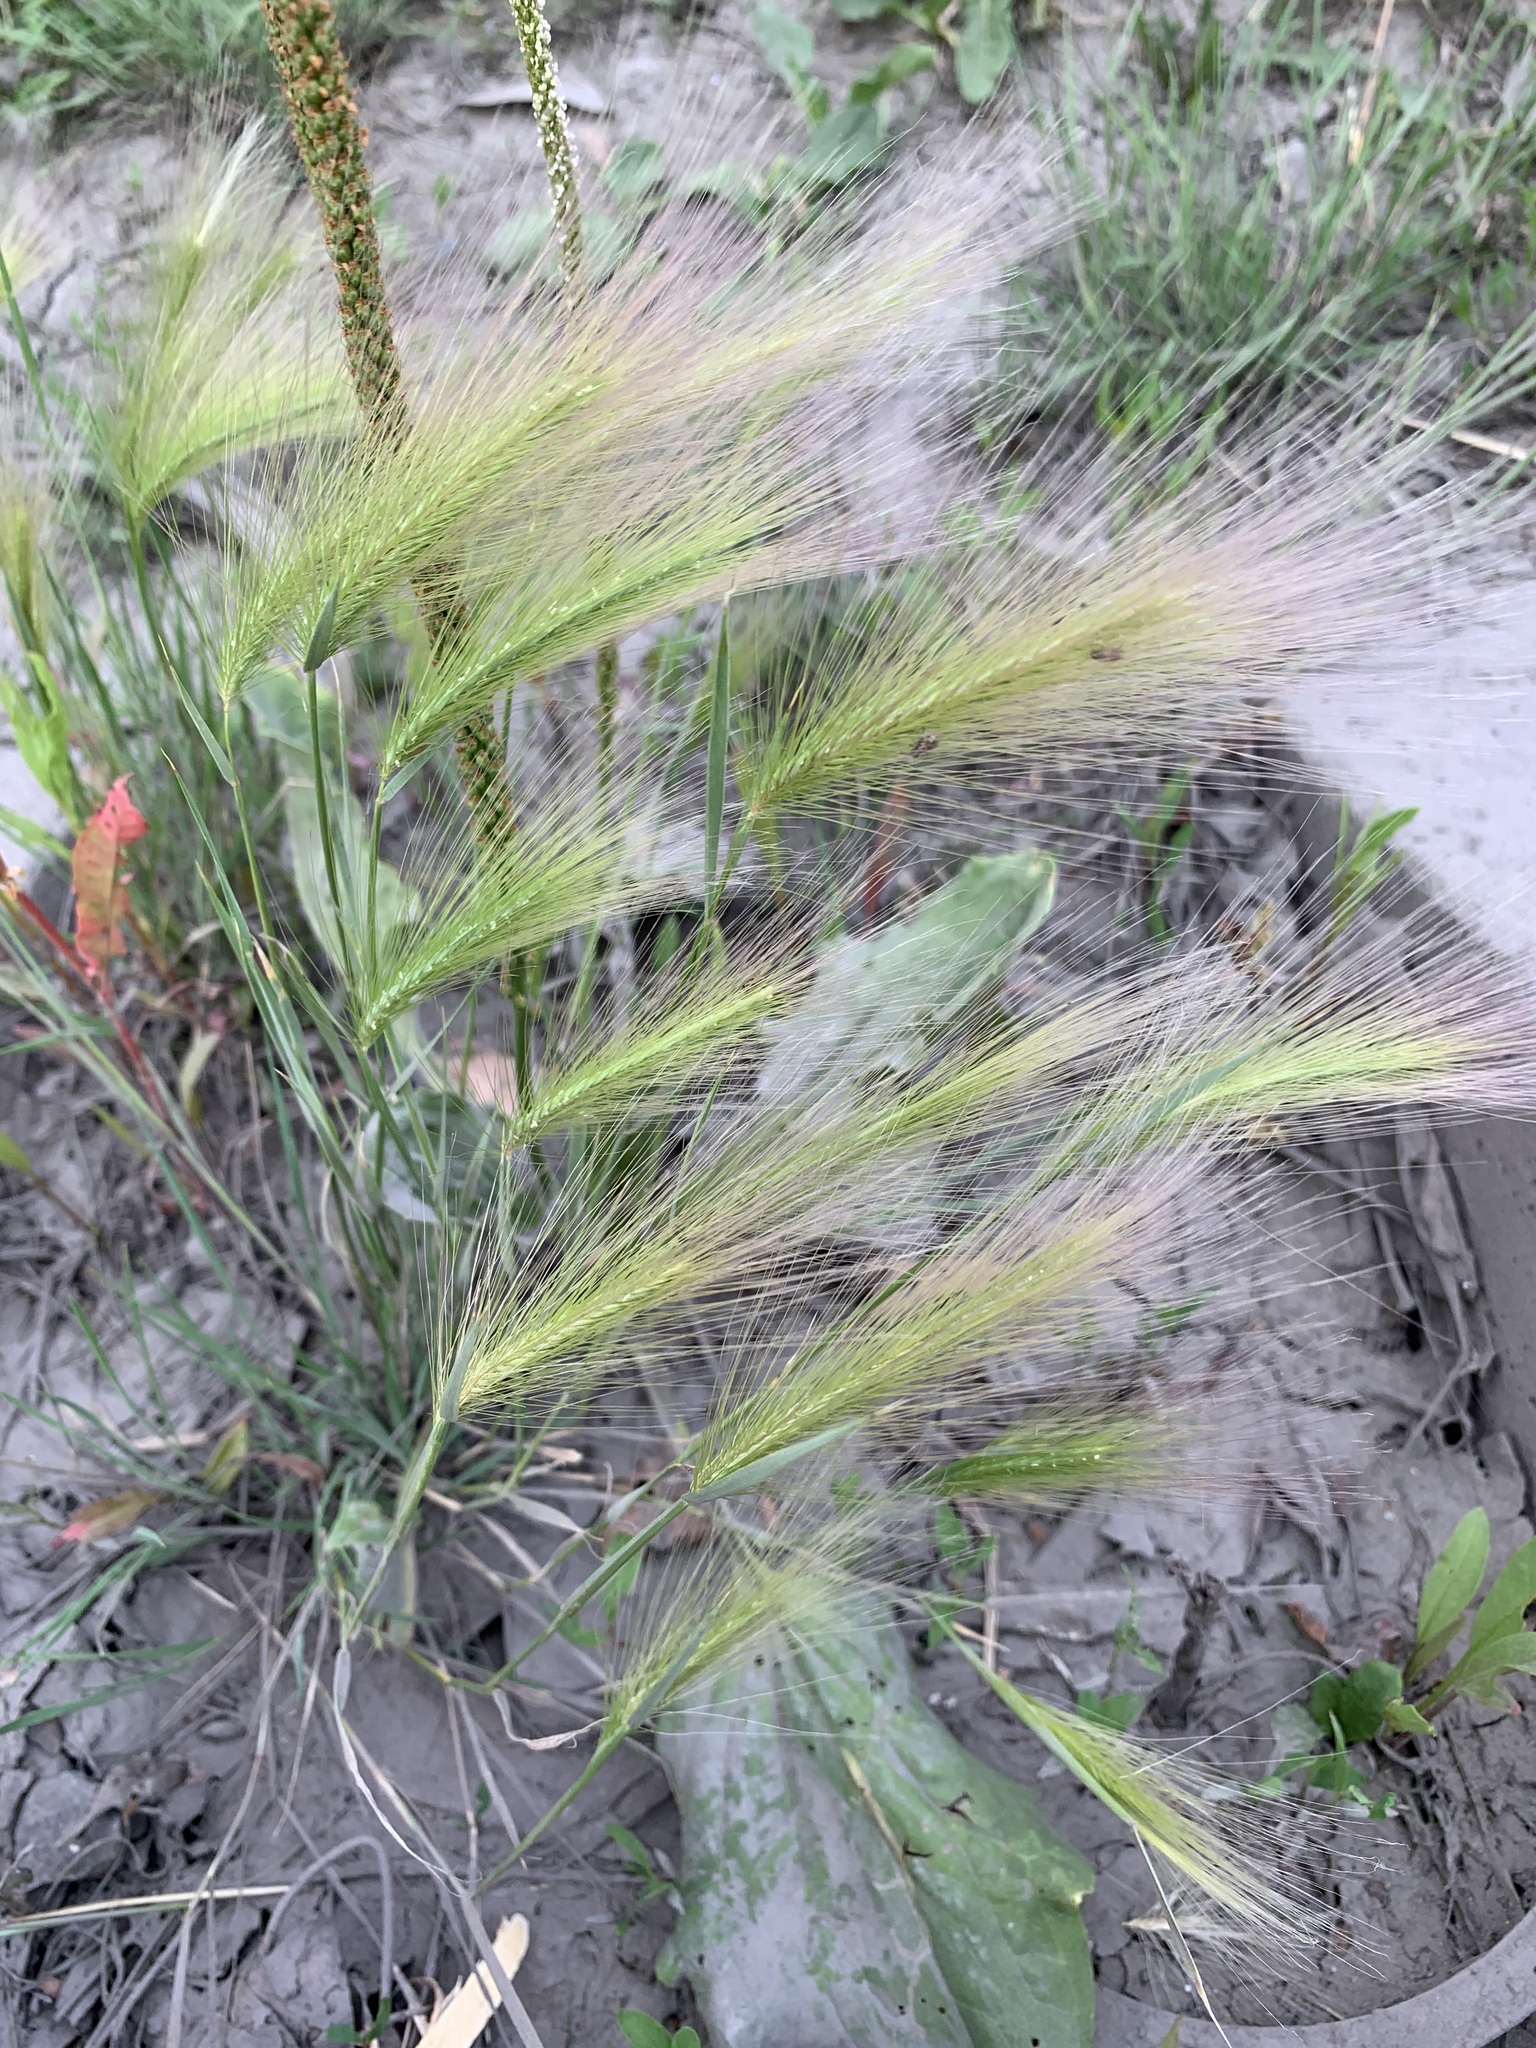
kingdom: Plantae
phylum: Tracheophyta
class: Liliopsida
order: Poales
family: Poaceae
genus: Hordeum
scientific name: Hordeum jubatum
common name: Foxtail barley
